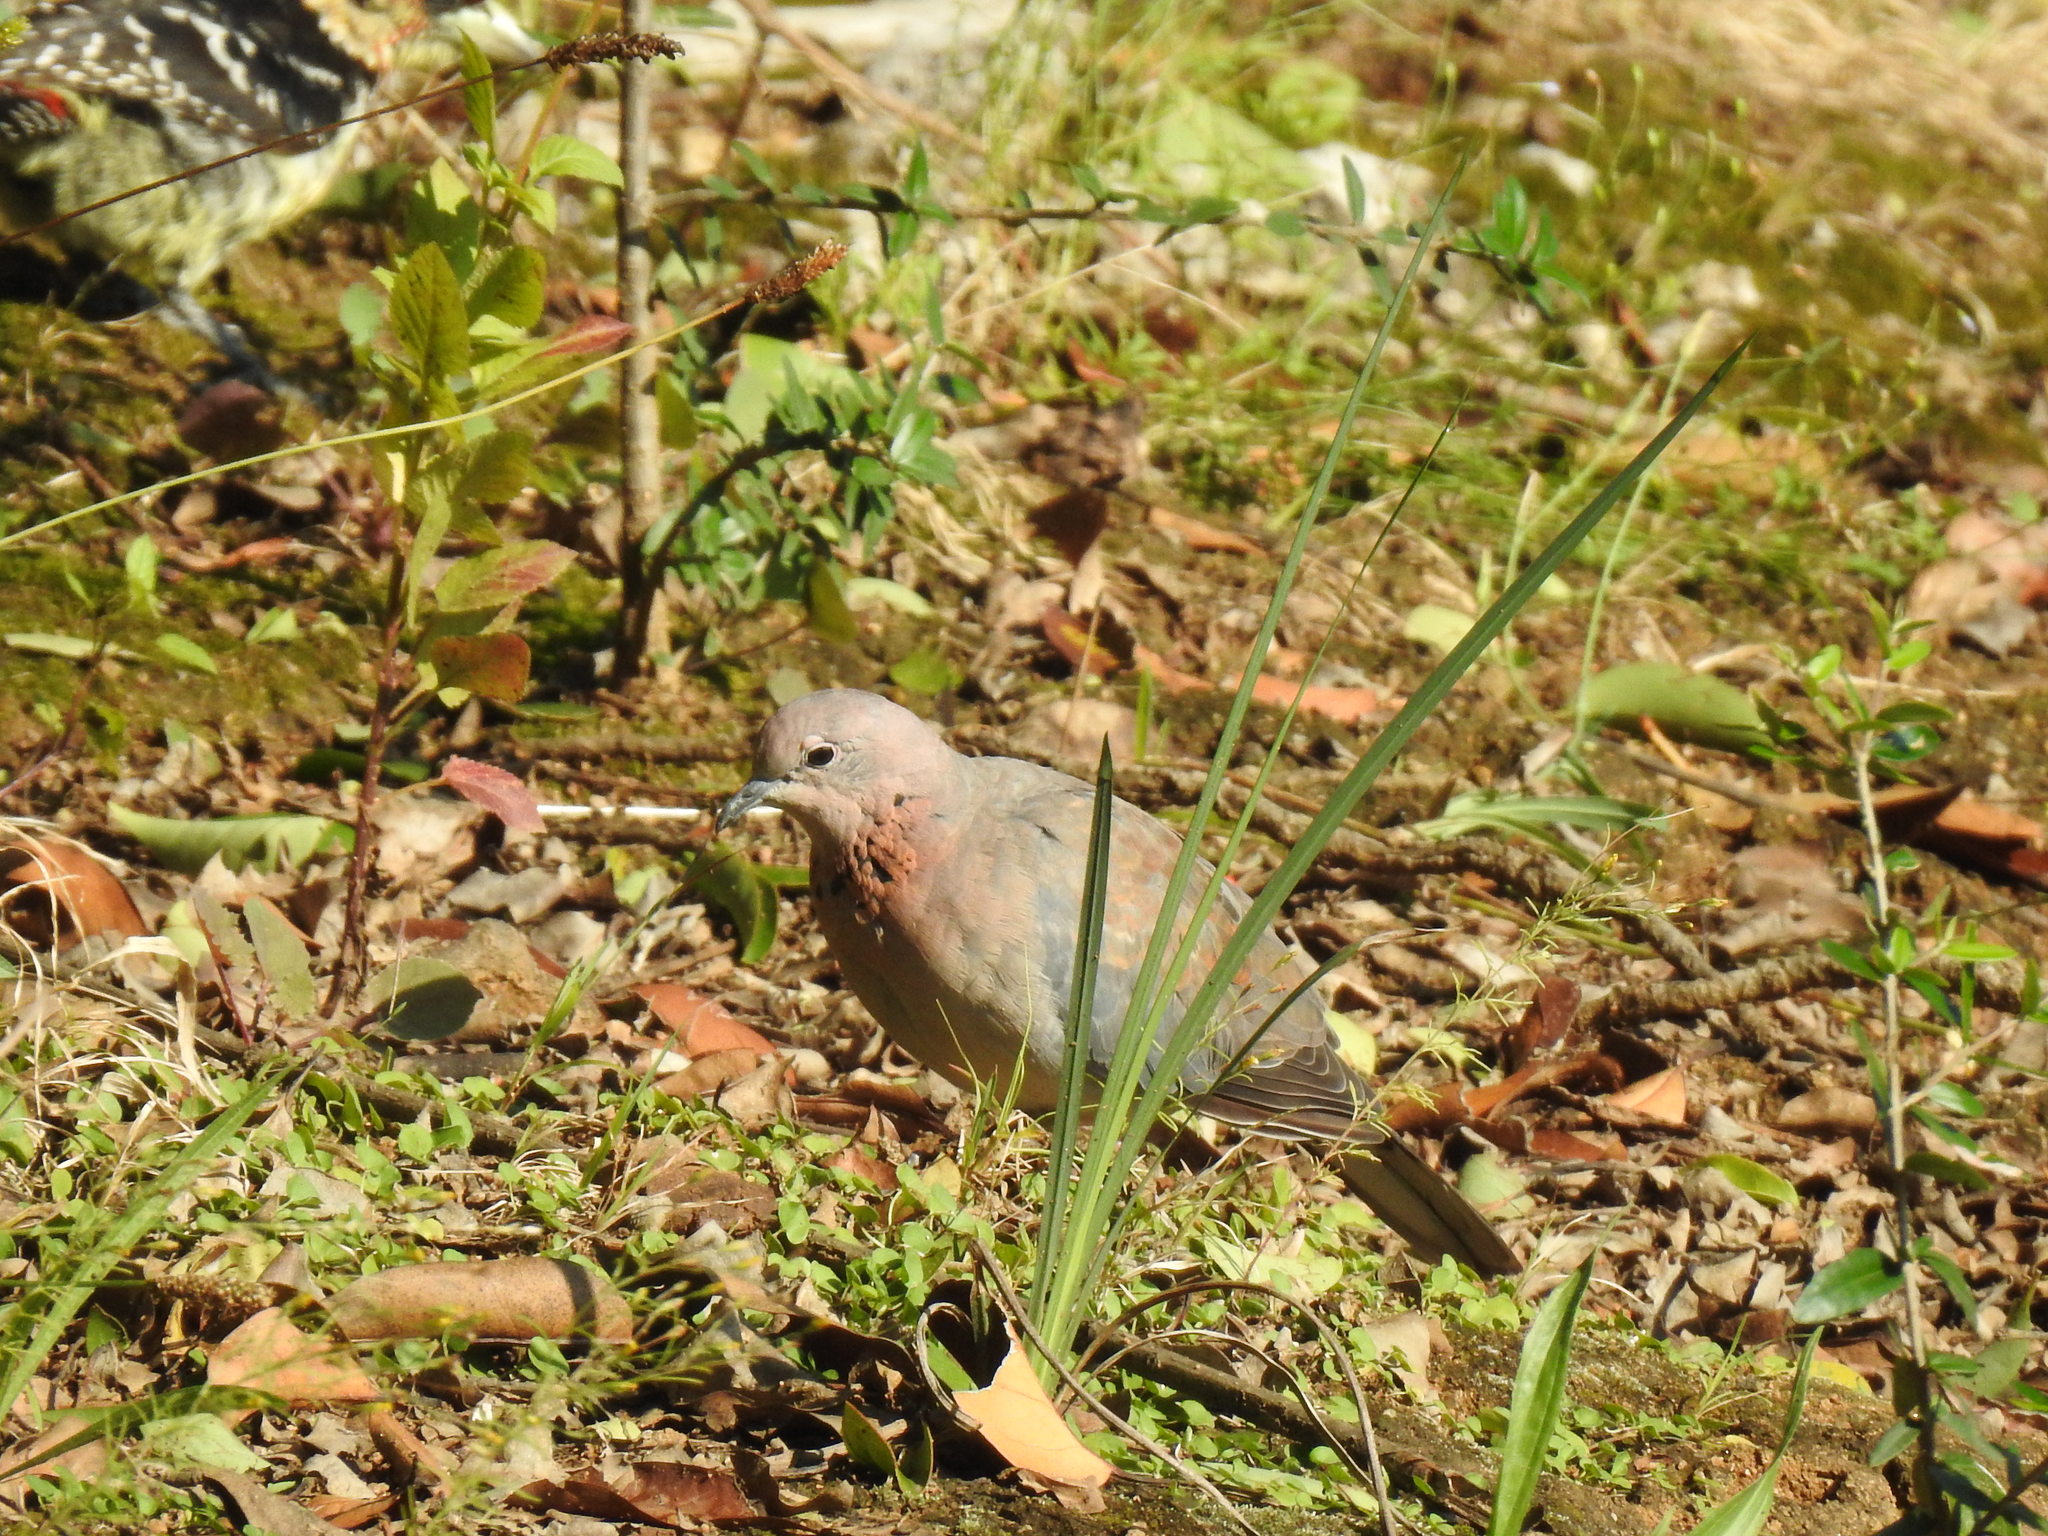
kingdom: Animalia
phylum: Chordata
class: Aves
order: Columbiformes
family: Columbidae
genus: Spilopelia
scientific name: Spilopelia senegalensis
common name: Laughing dove
